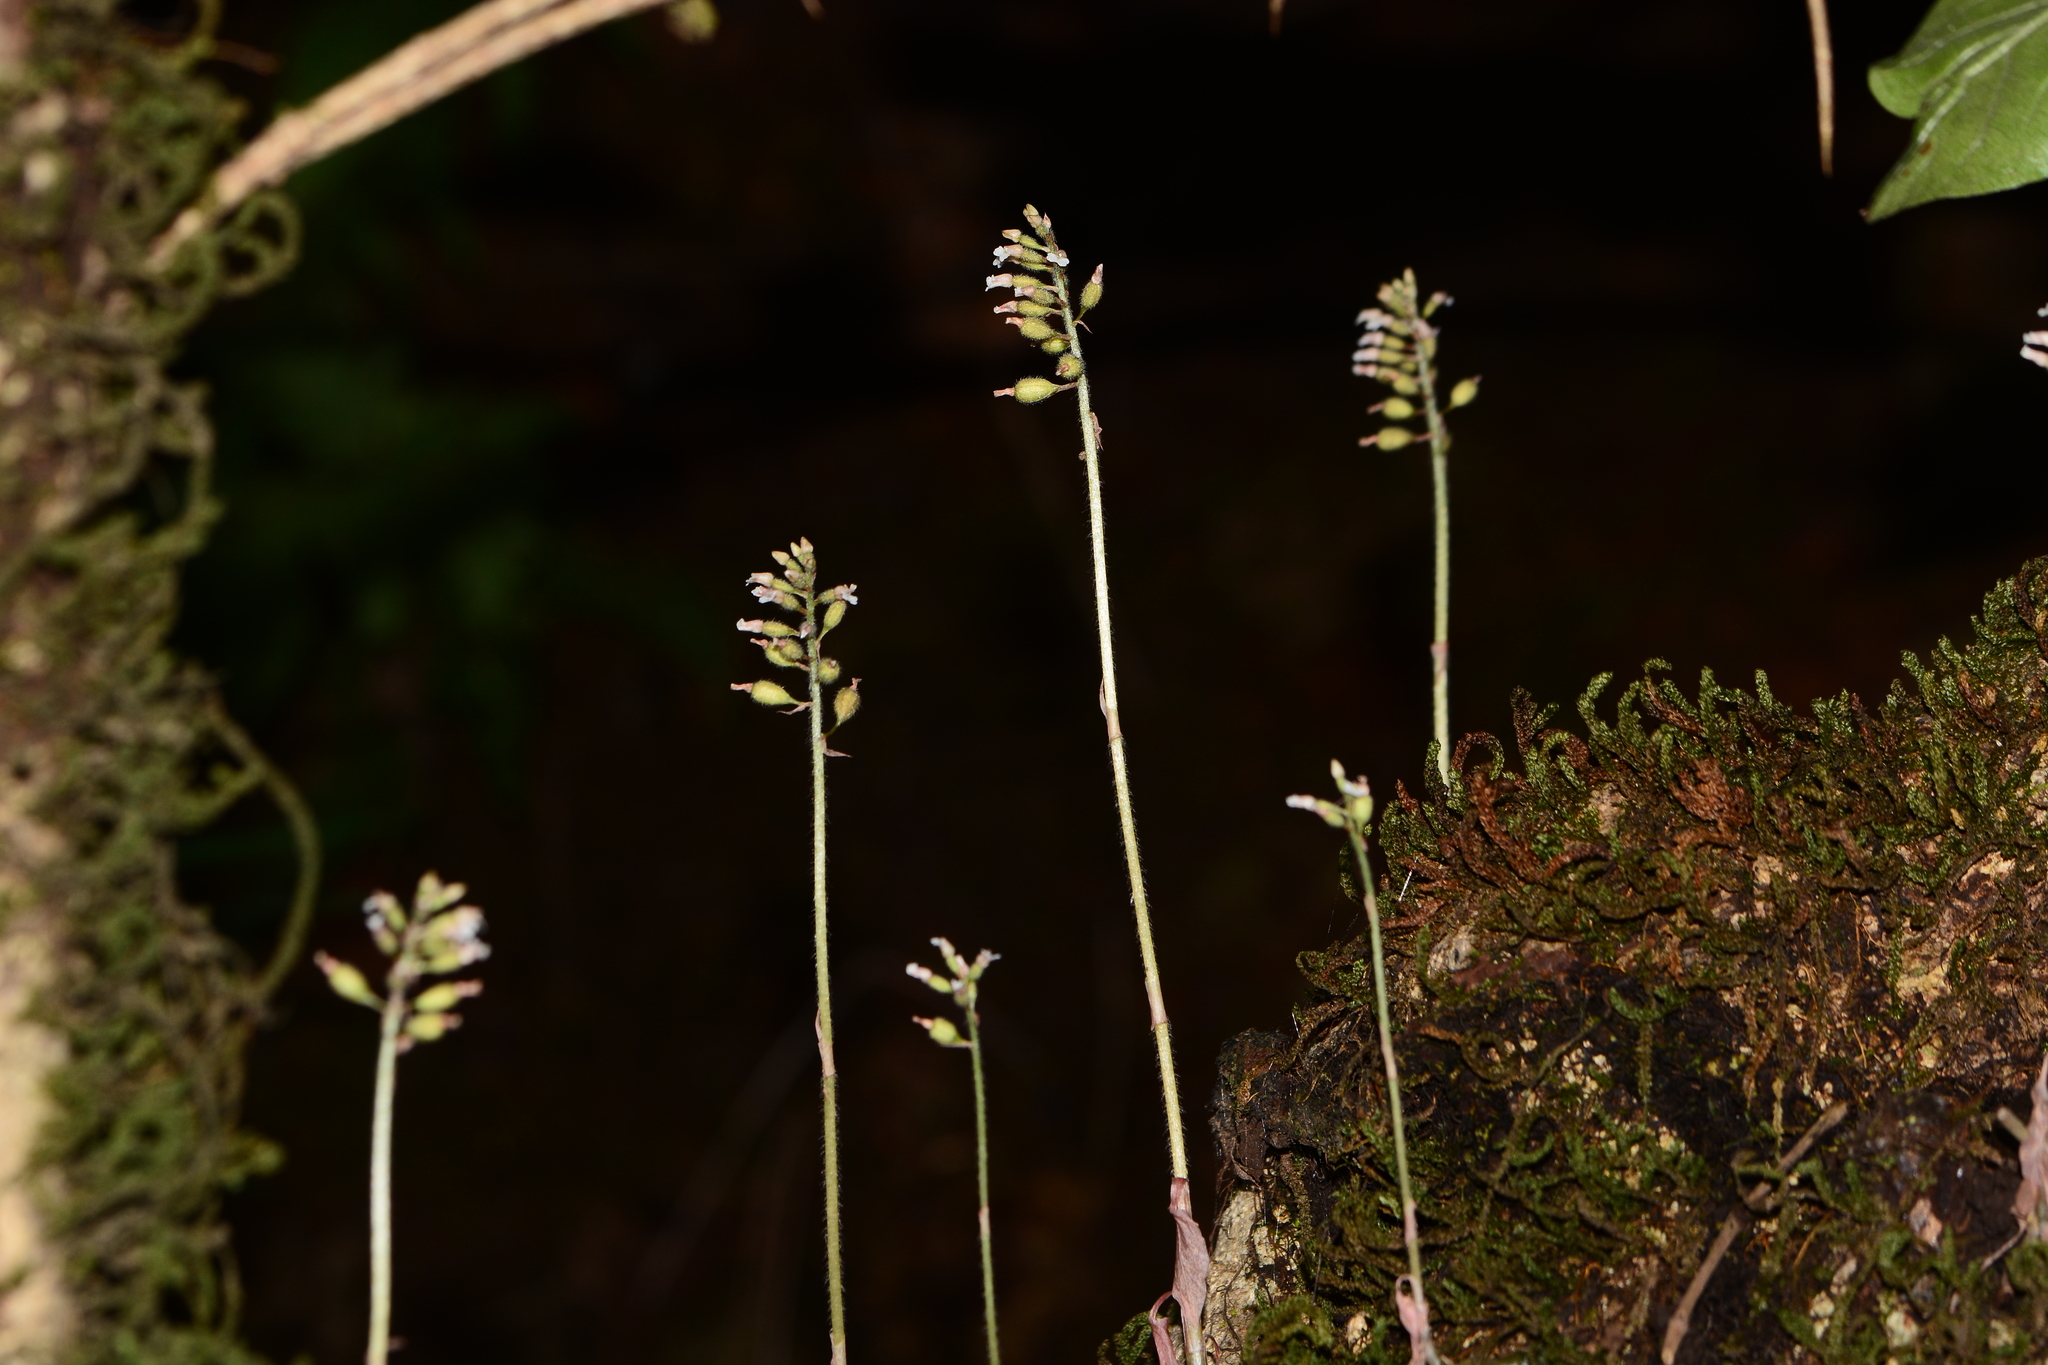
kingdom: Plantae
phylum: Tracheophyta
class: Liliopsida
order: Asparagales
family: Orchidaceae
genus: Cheirostylis
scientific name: Cheirostylis parvifolia
